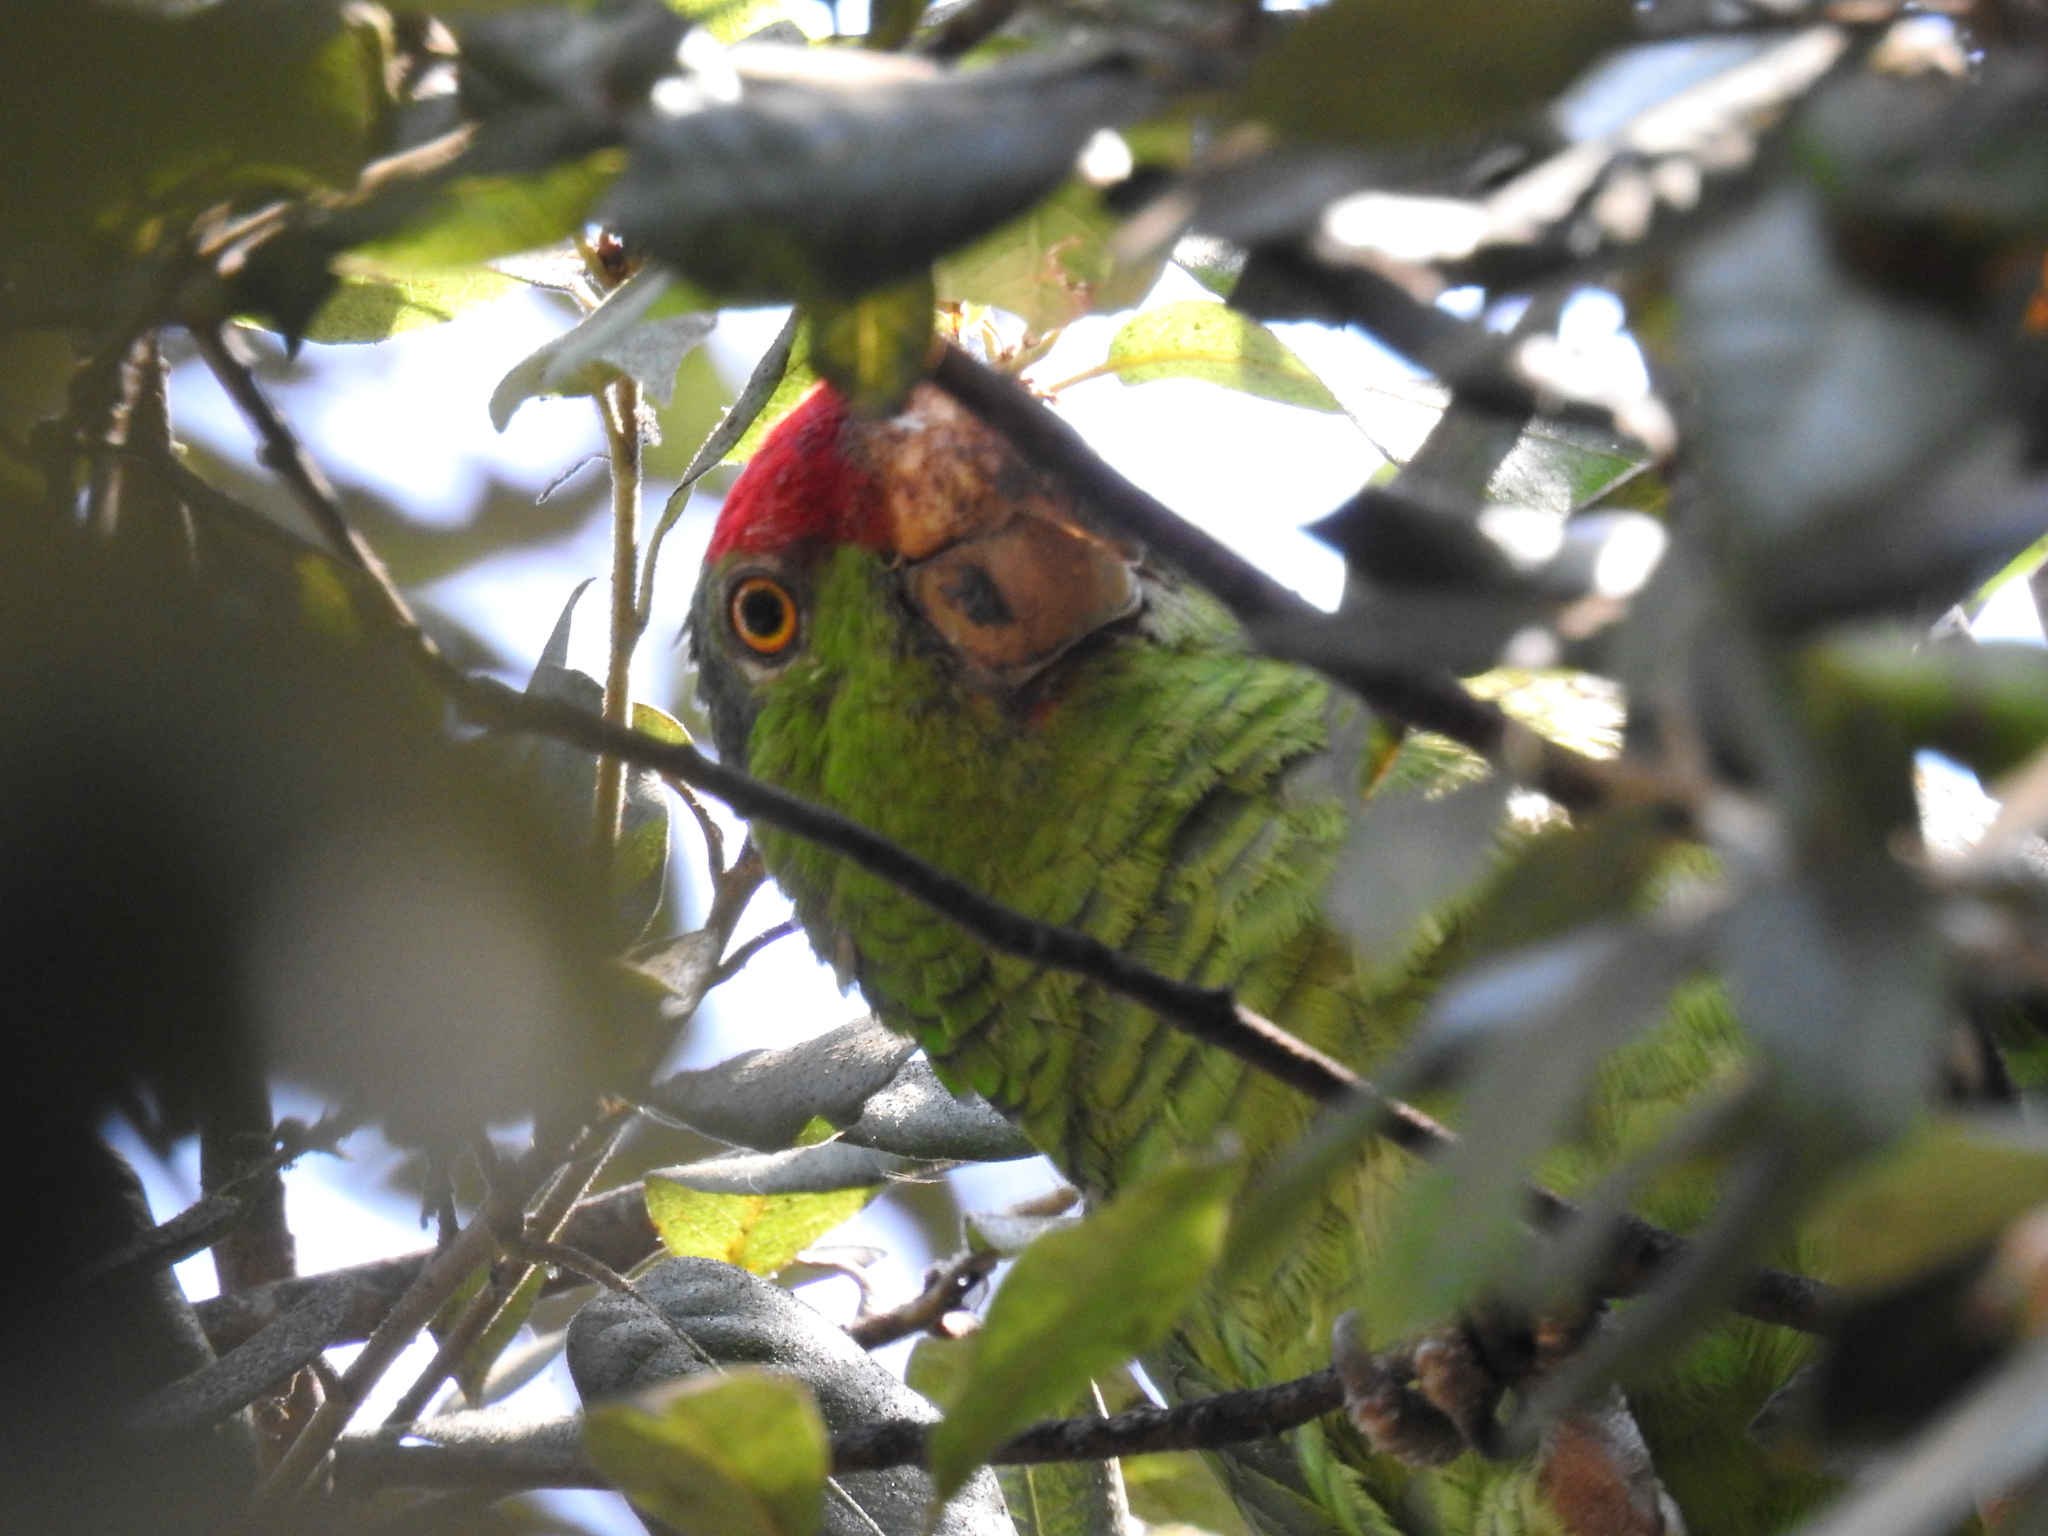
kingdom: Animalia
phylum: Chordata
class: Aves
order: Psittaciformes
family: Psittacidae
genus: Amazona
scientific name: Amazona viridigenalis
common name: Red-crowned amazon
